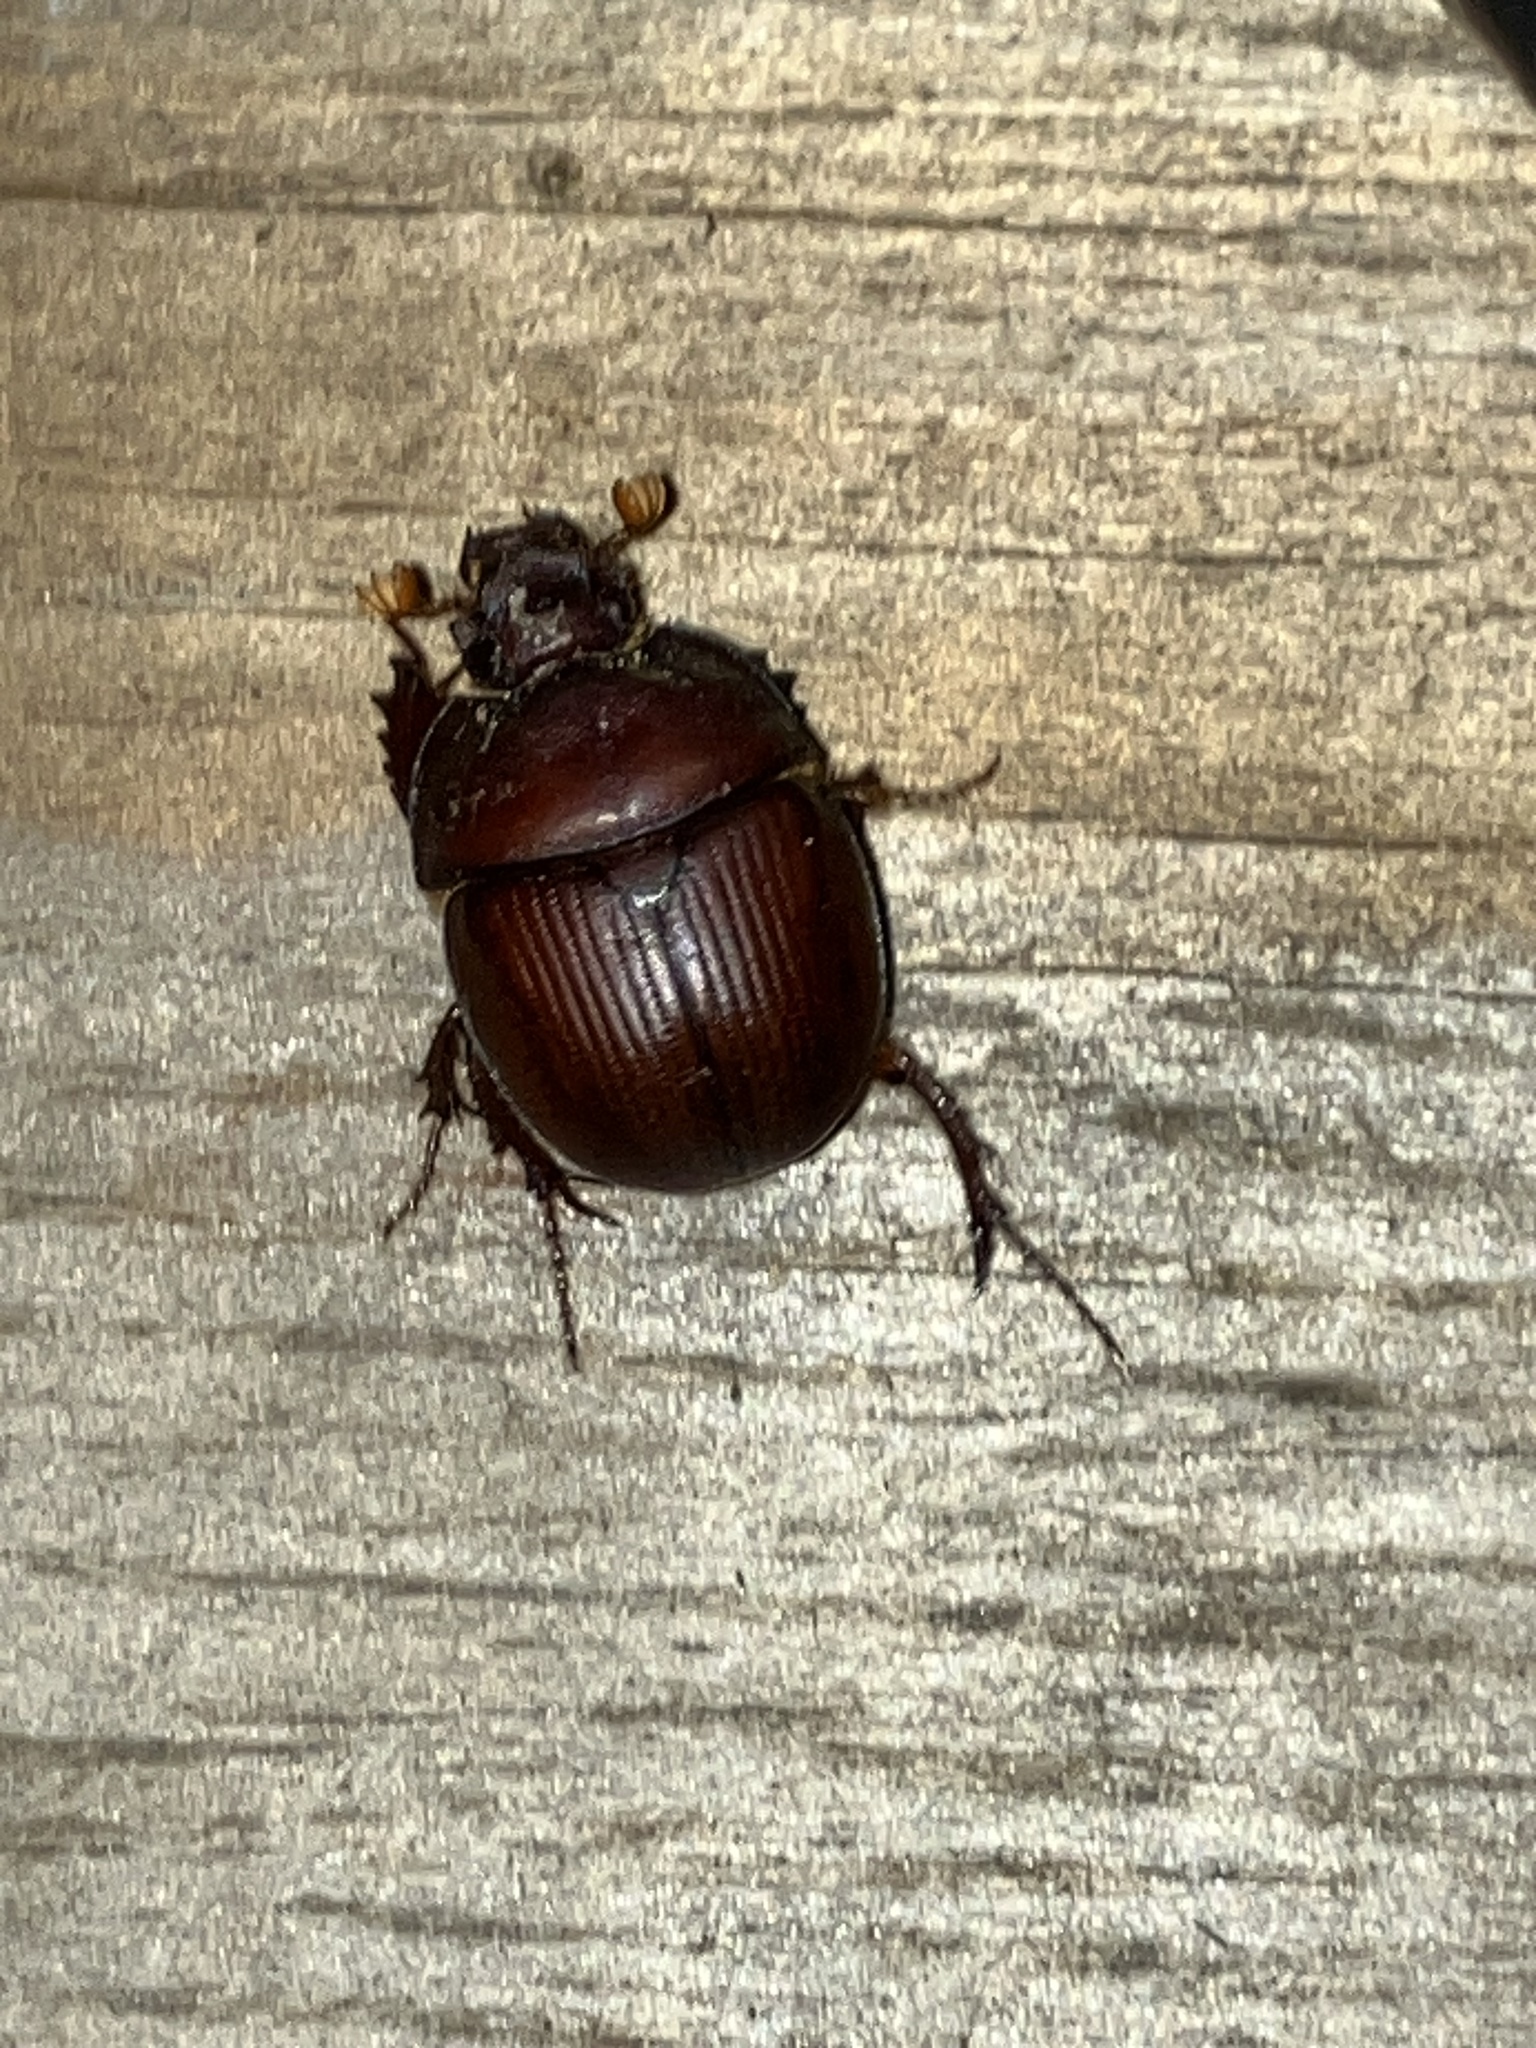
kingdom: Animalia
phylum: Arthropoda
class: Insecta
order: Coleoptera
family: Bolboceratidae
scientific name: Bolboceratidae
